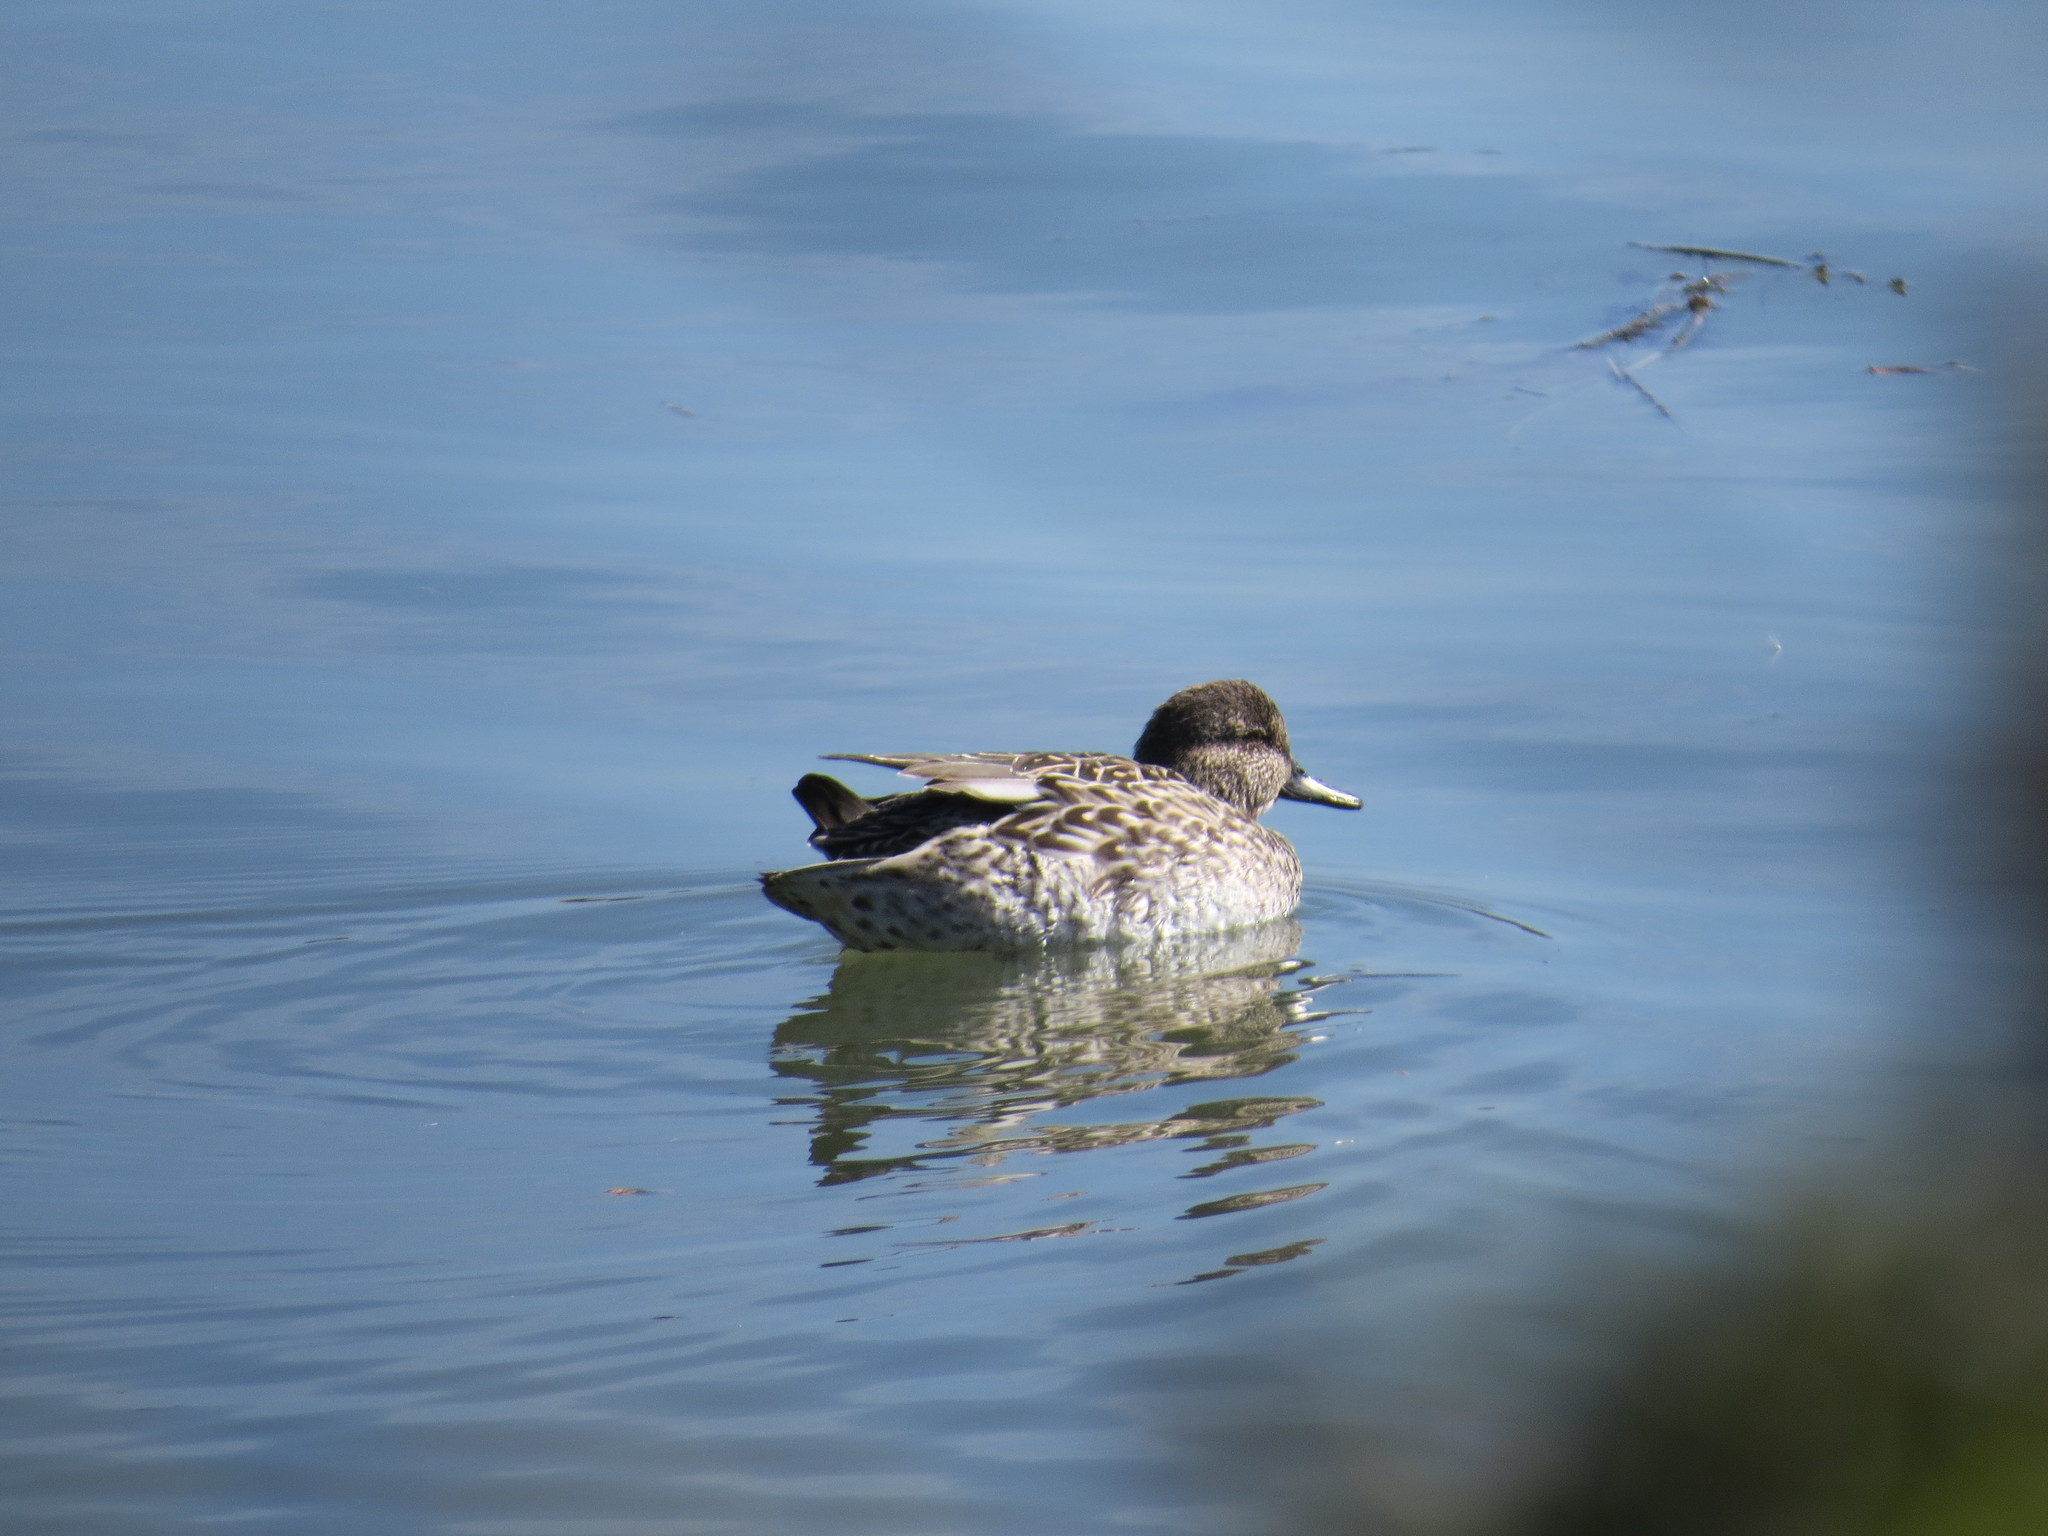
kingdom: Animalia
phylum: Chordata
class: Aves
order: Anseriformes
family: Anatidae
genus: Mareca
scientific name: Mareca strepera
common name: Gadwall
